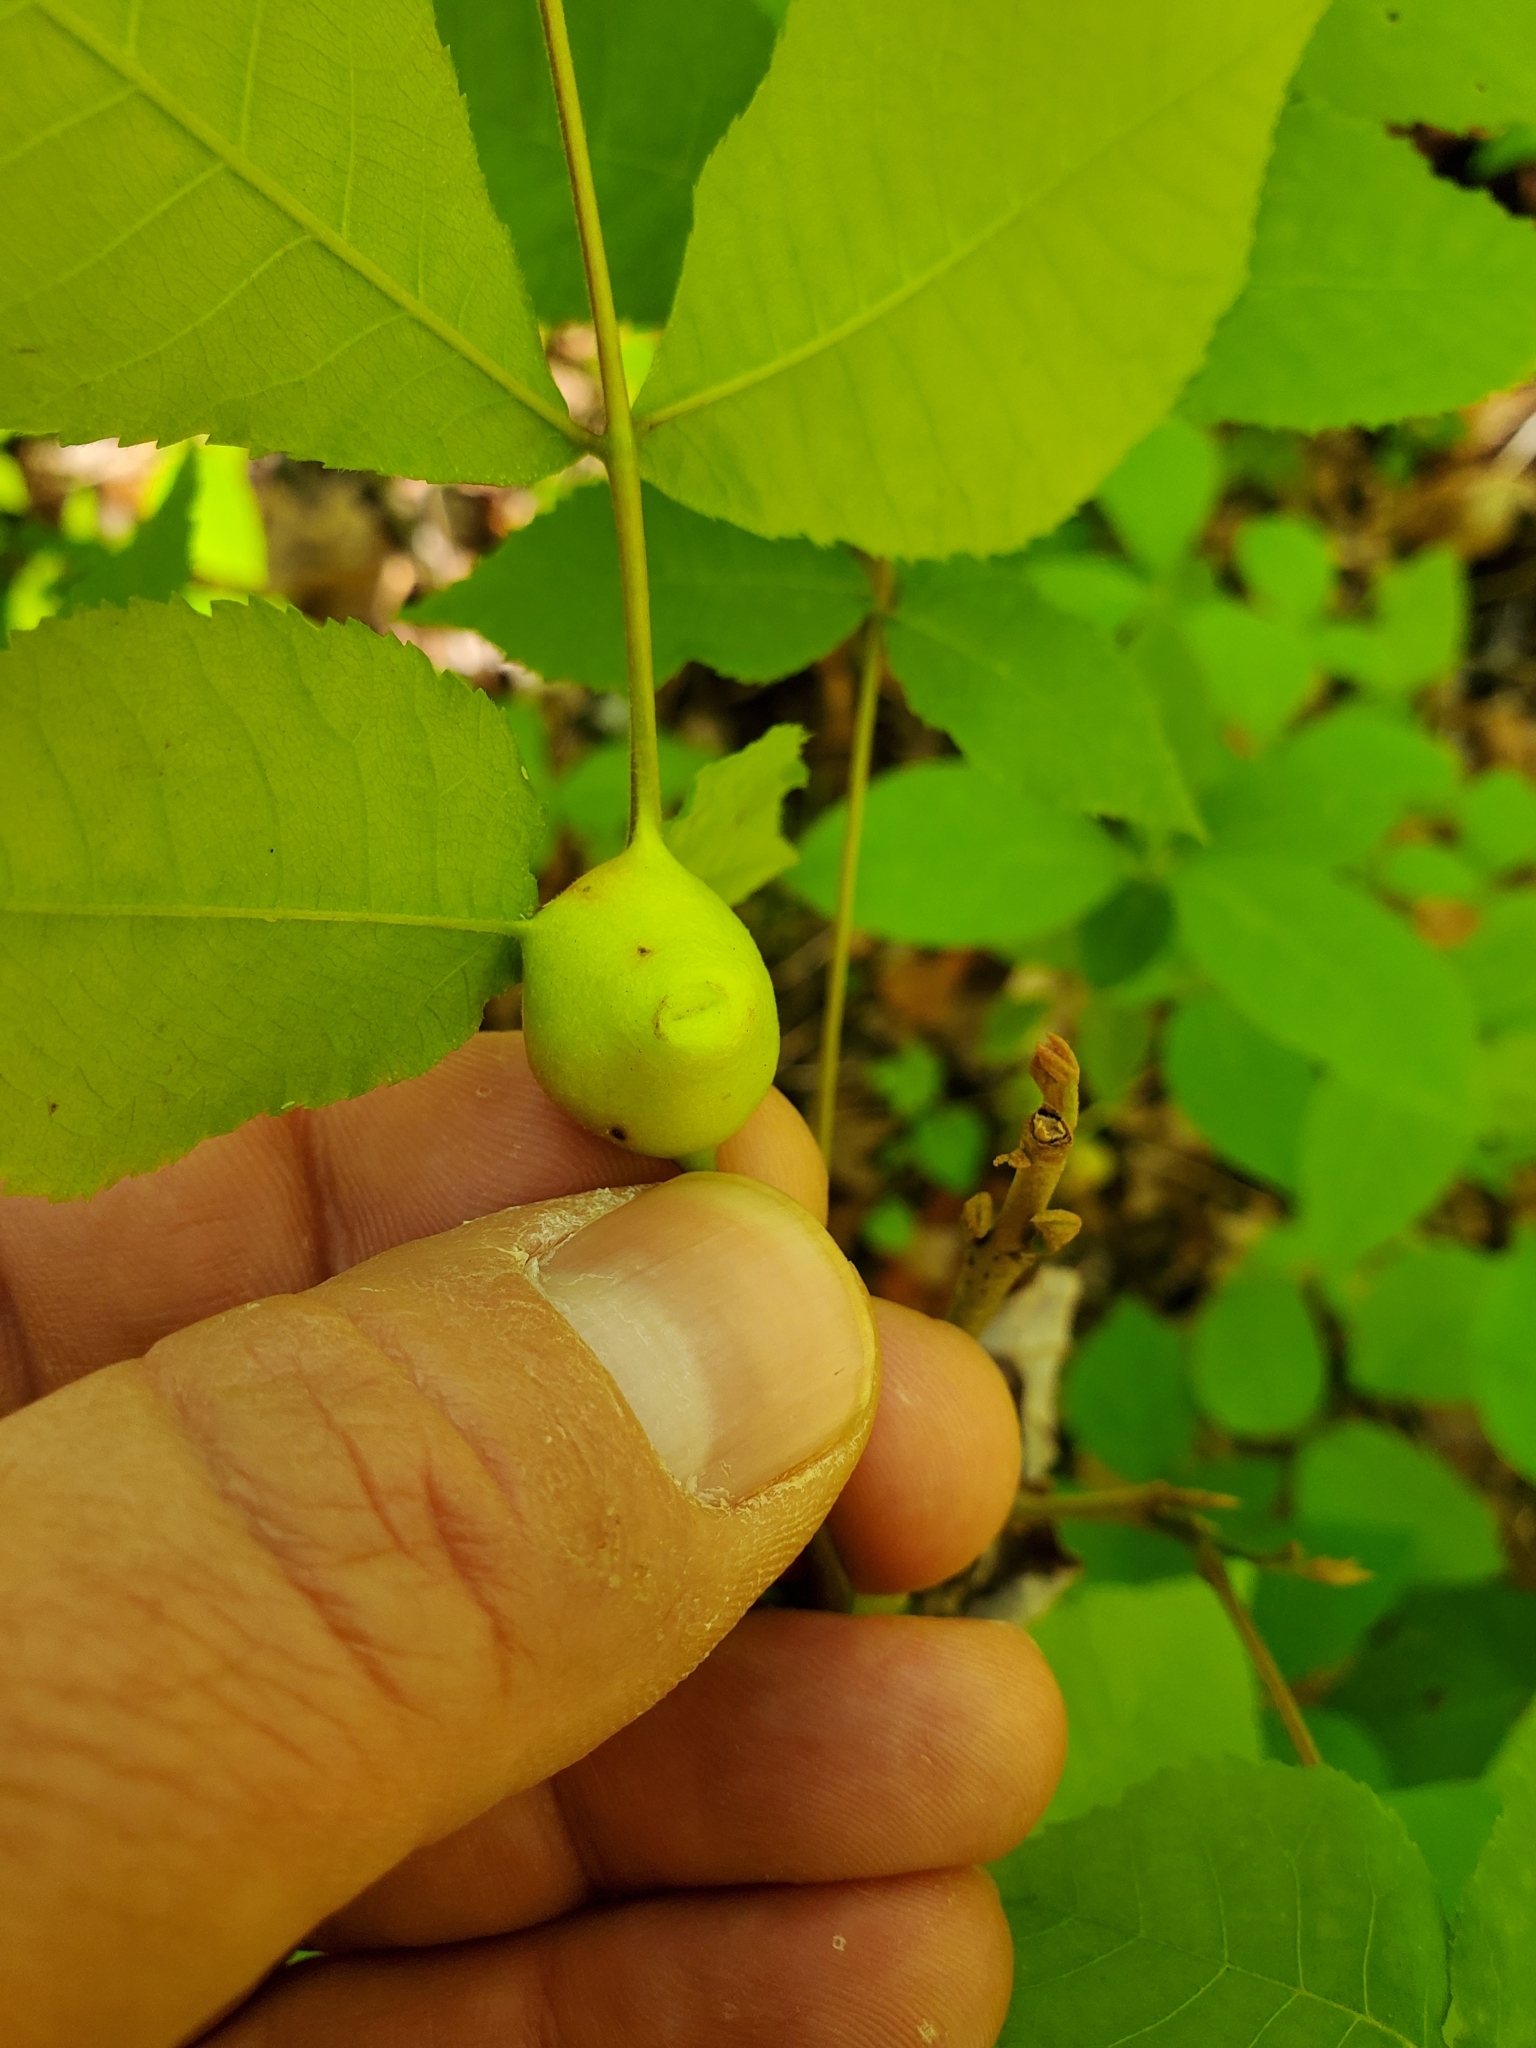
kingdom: Animalia
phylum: Arthropoda
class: Insecta
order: Hemiptera
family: Phylloxeridae
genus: Phylloxera
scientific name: Phylloxera
